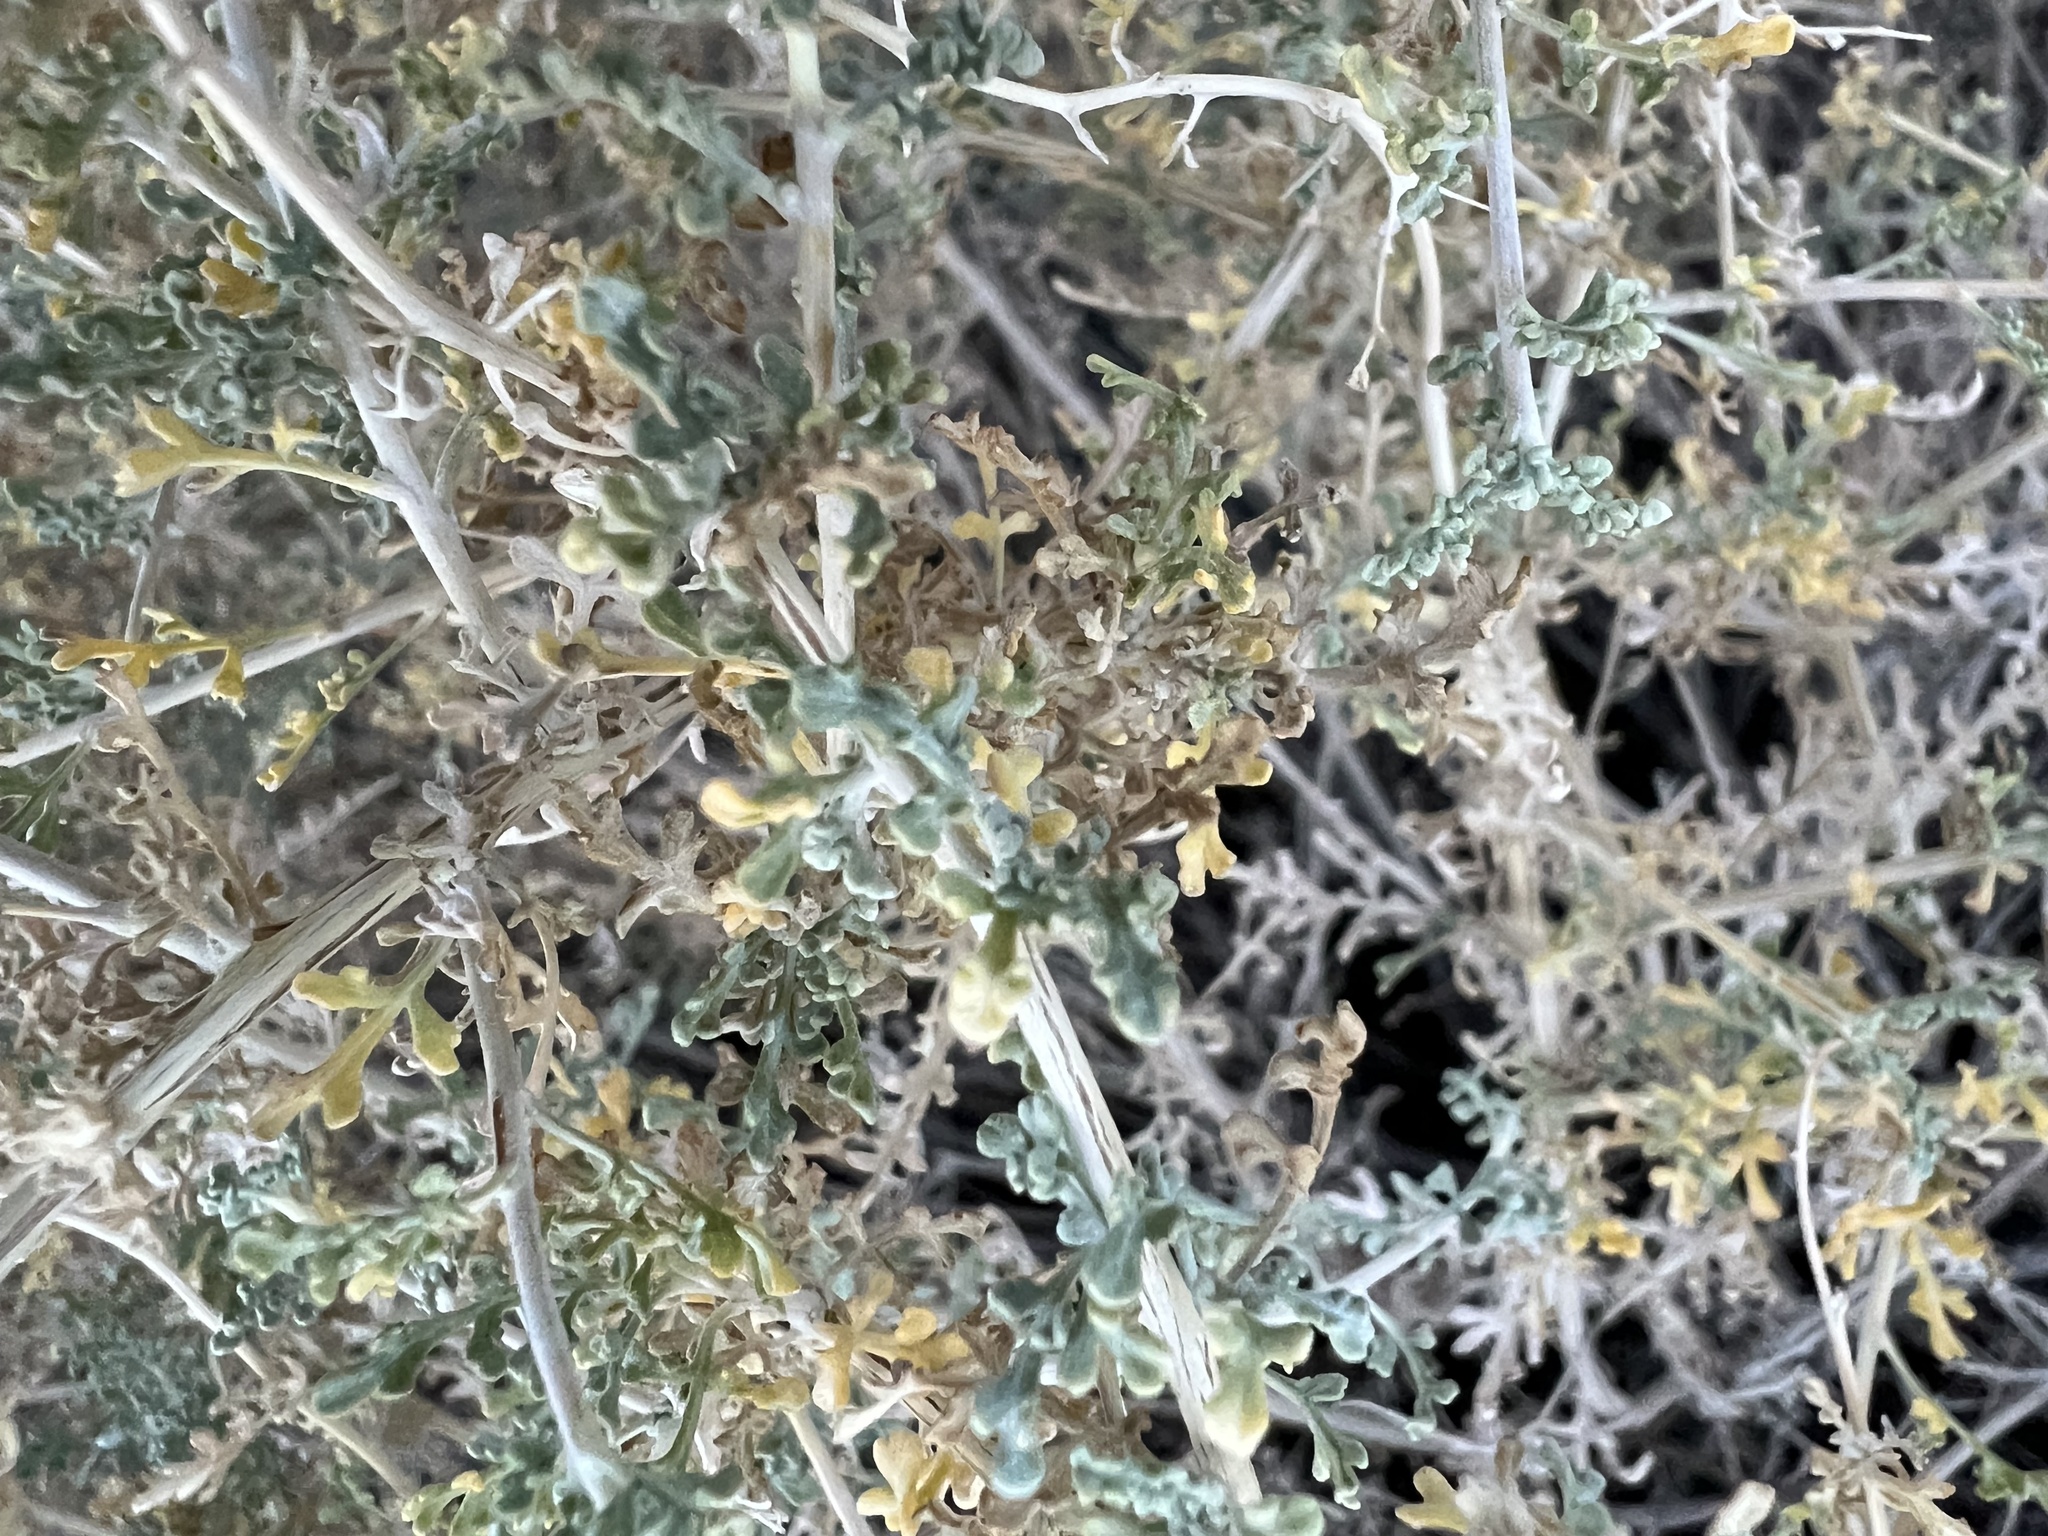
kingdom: Plantae
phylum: Tracheophyta
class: Magnoliopsida
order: Asterales
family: Asteraceae
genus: Ambrosia
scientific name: Ambrosia dumosa
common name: Bur-sage
